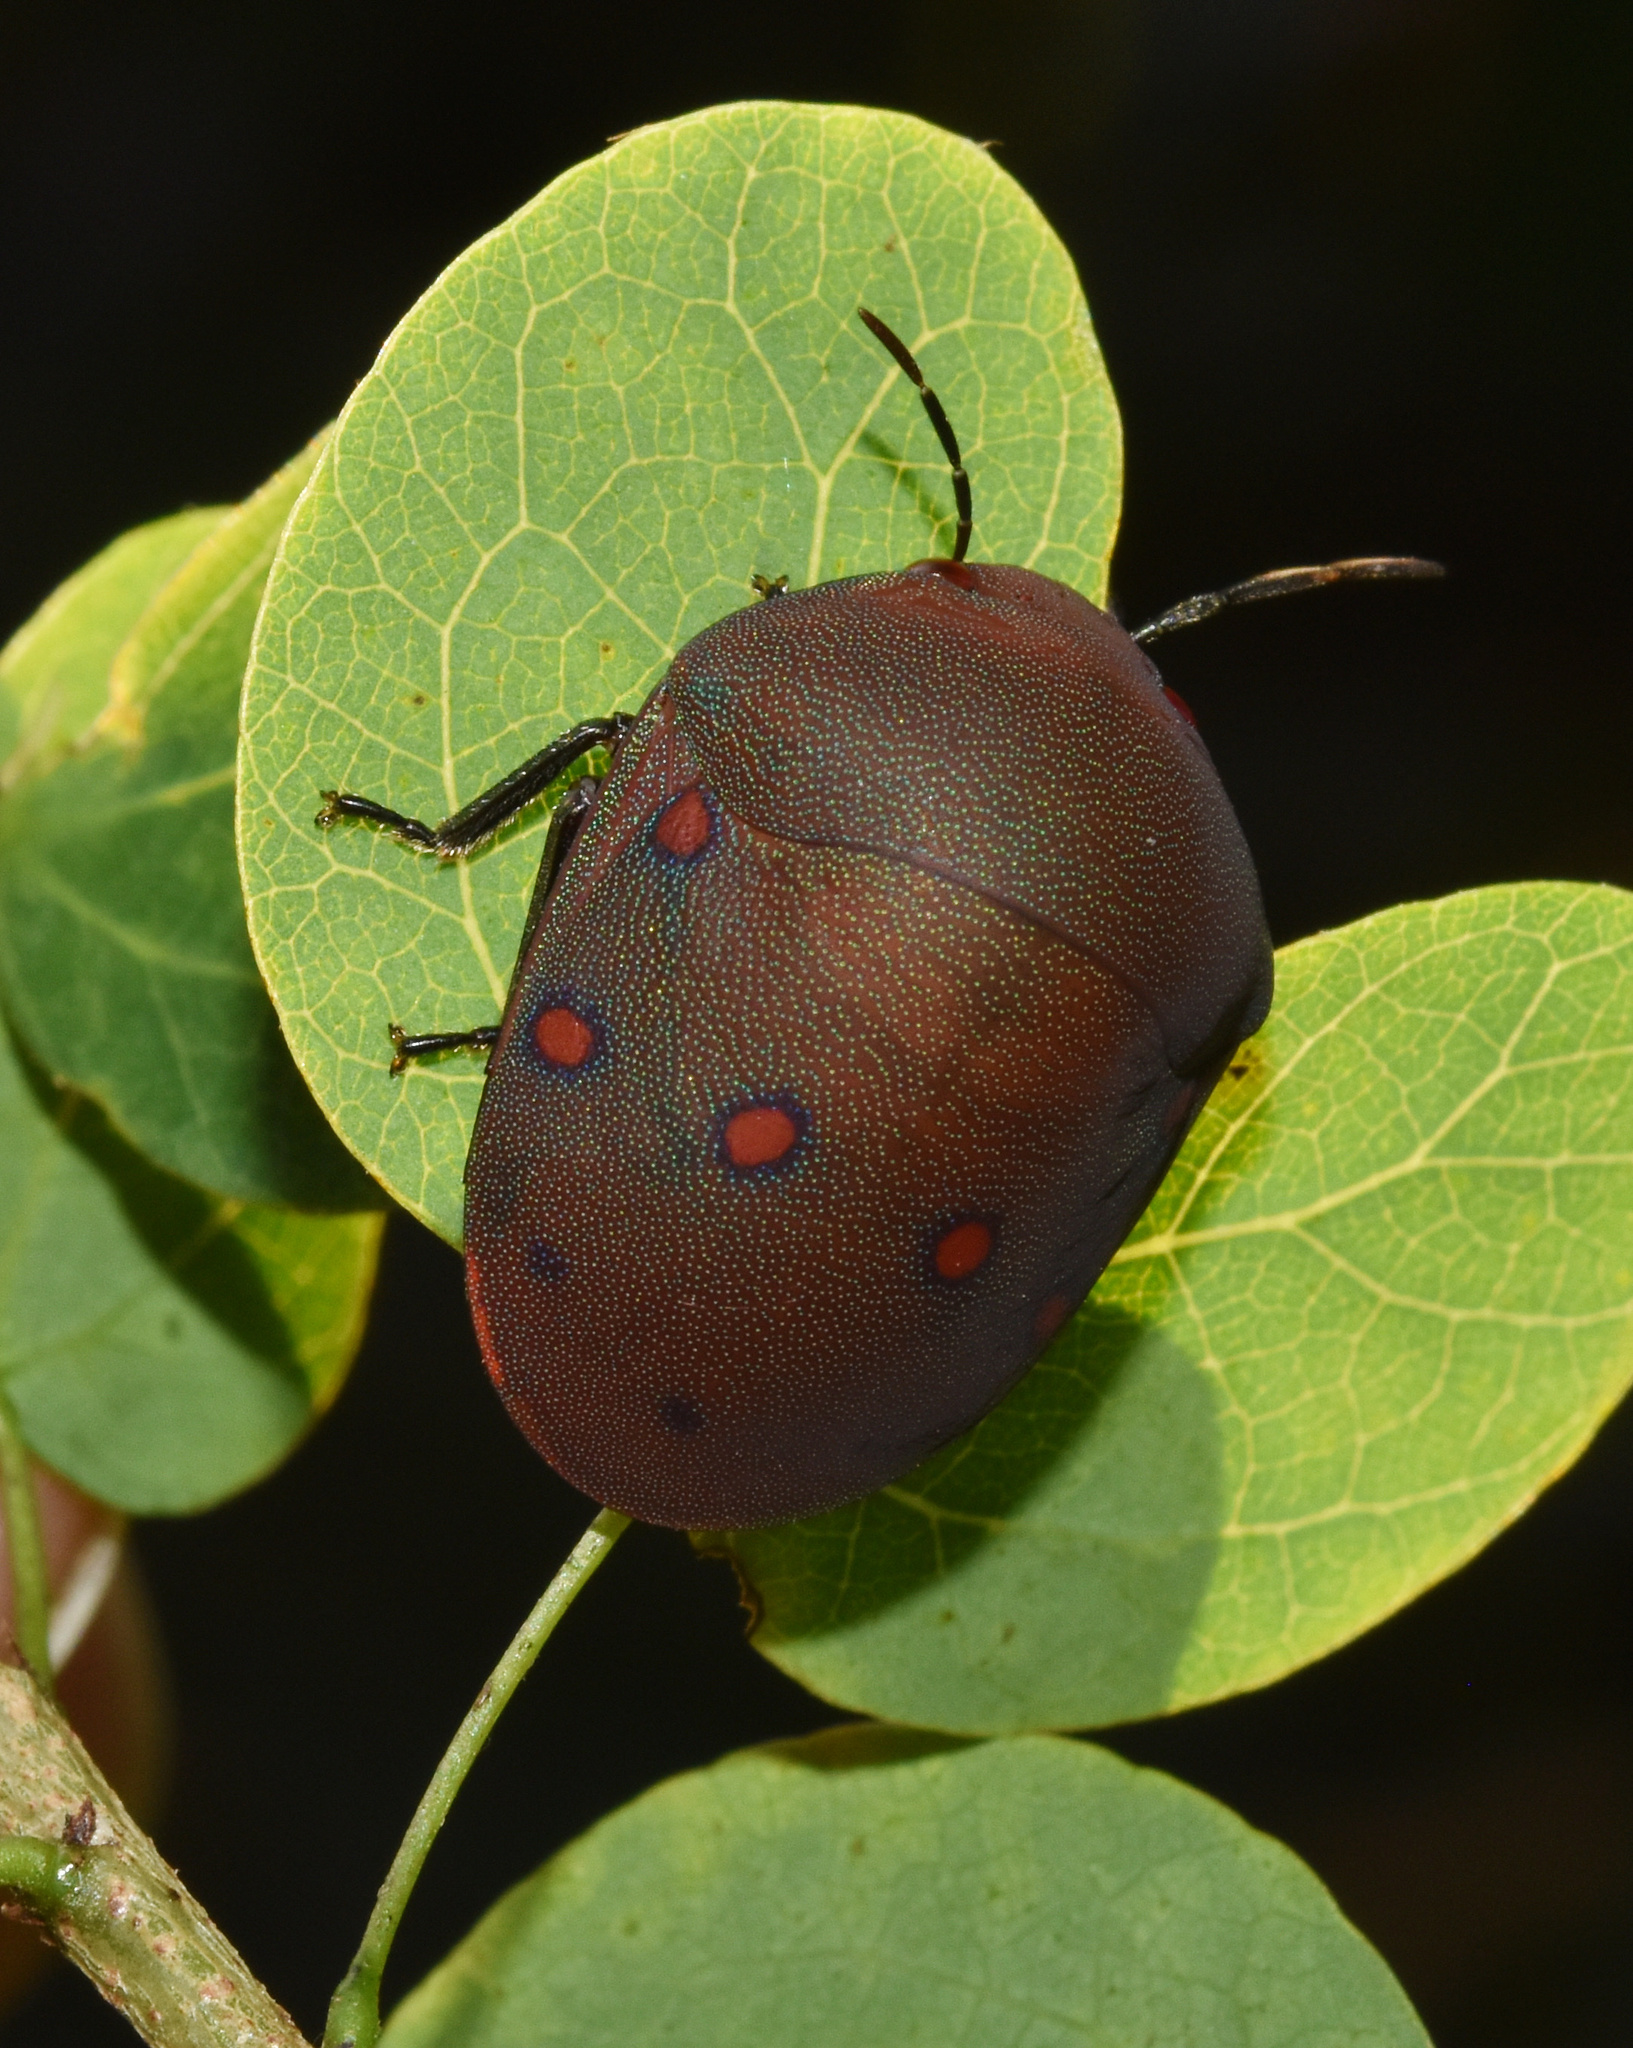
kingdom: Animalia
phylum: Arthropoda
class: Insecta
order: Hemiptera
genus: Chiastosternum
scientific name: Chiastosternum
